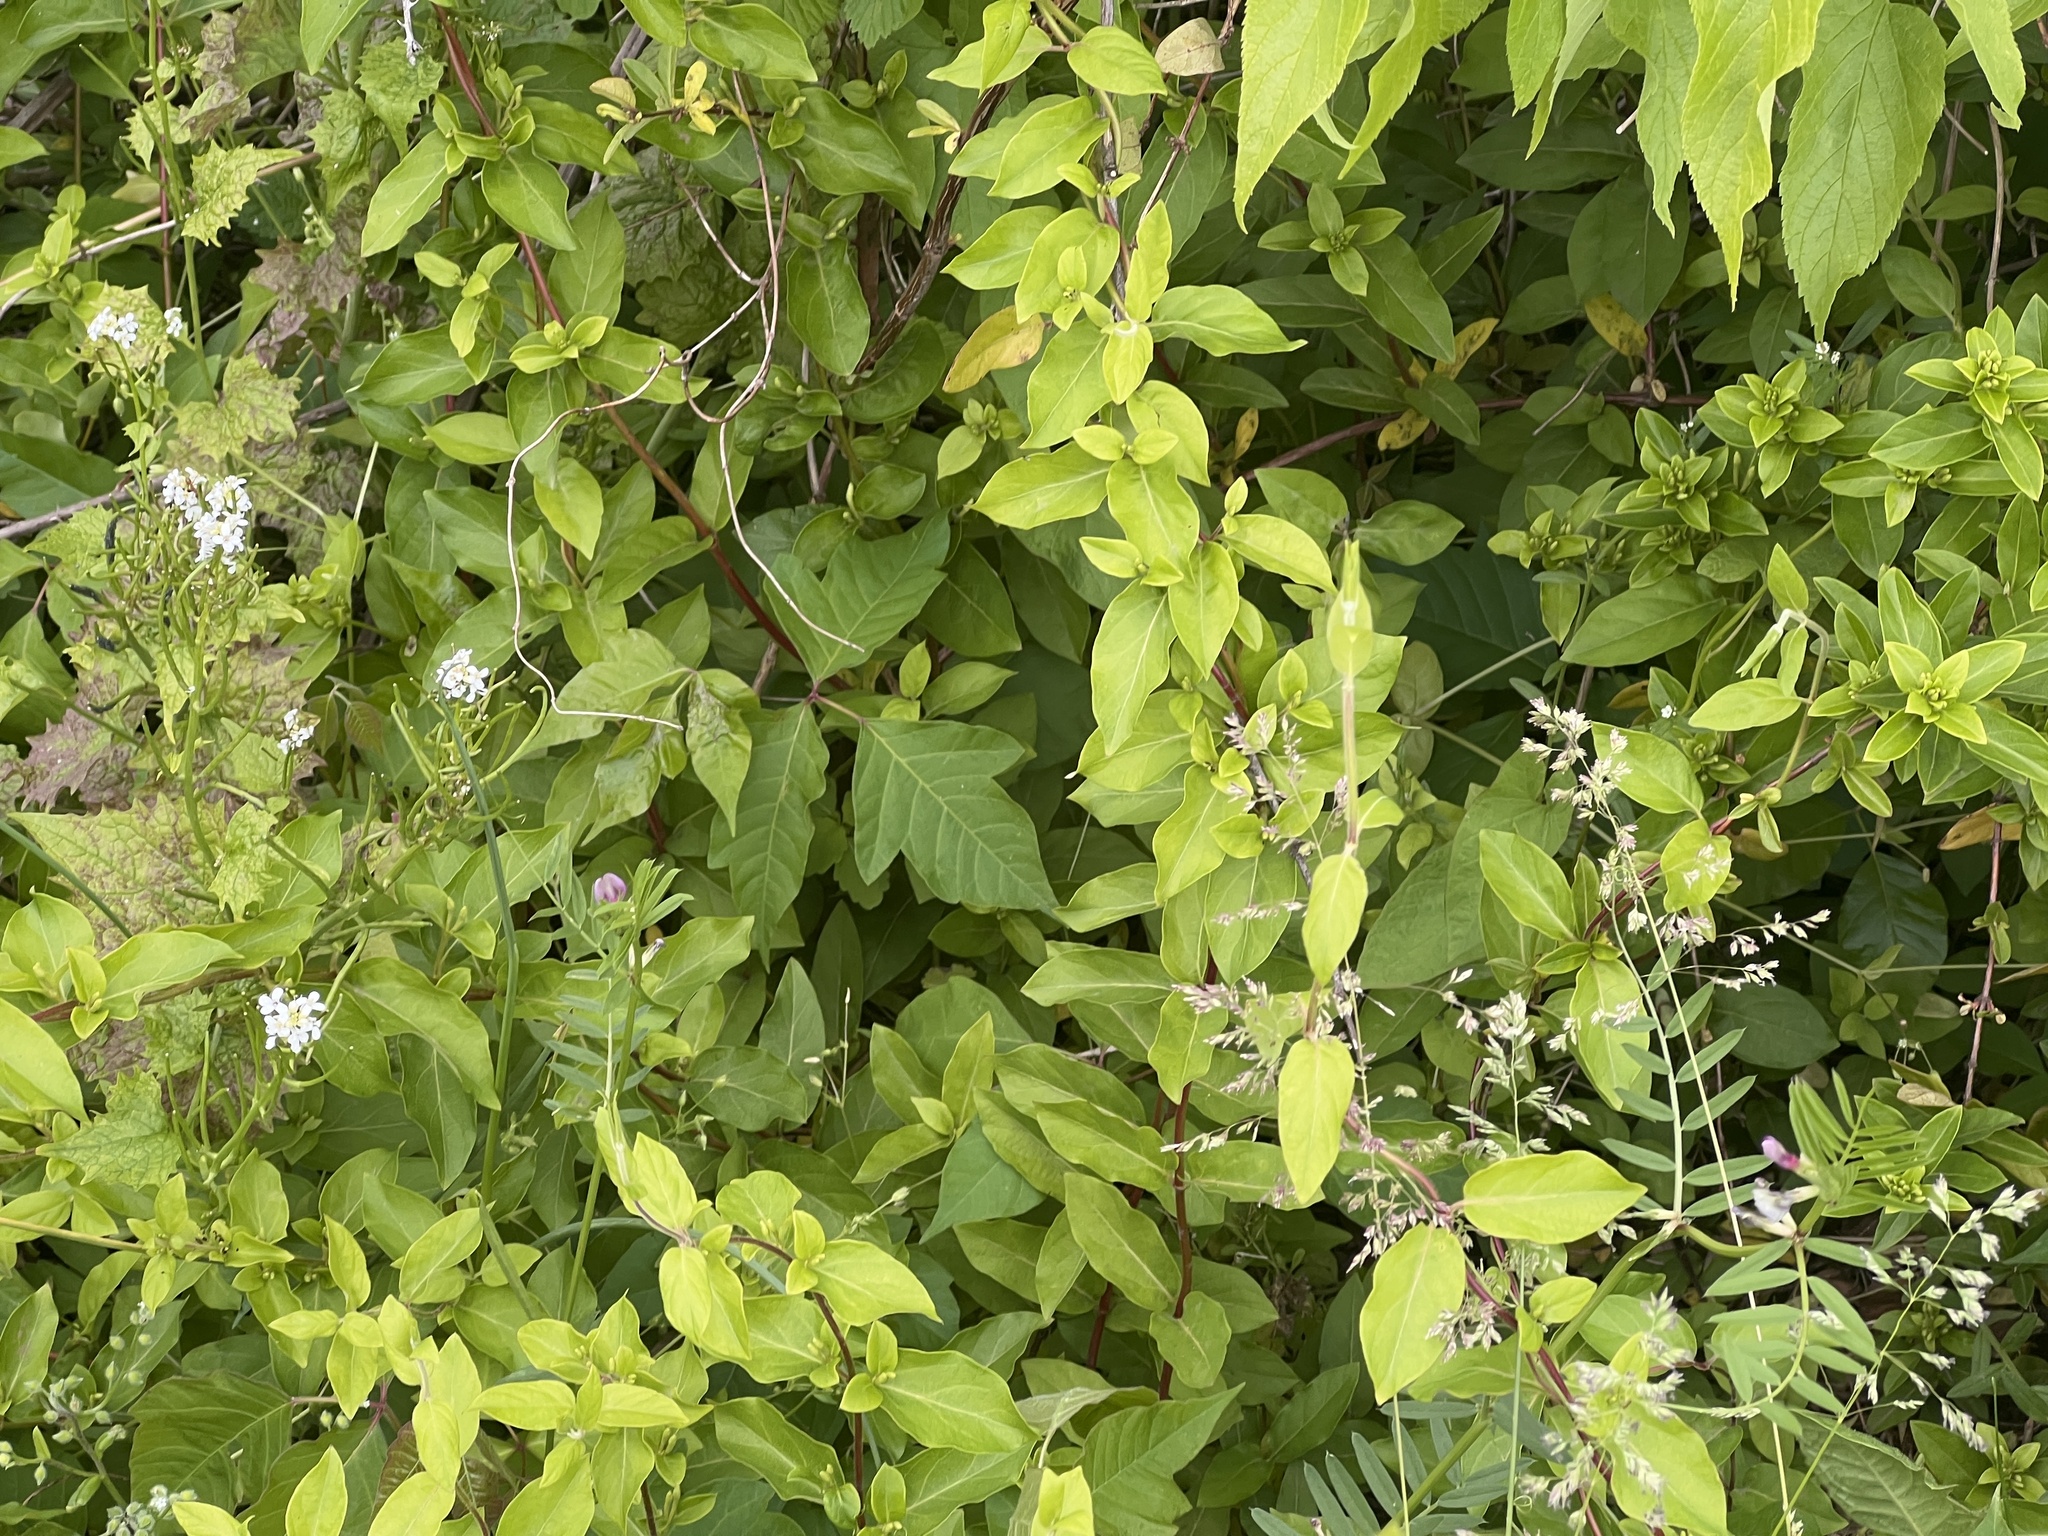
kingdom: Plantae
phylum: Tracheophyta
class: Magnoliopsida
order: Dipsacales
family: Caprifoliaceae
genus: Lonicera
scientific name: Lonicera japonica
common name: Japanese honeysuckle
